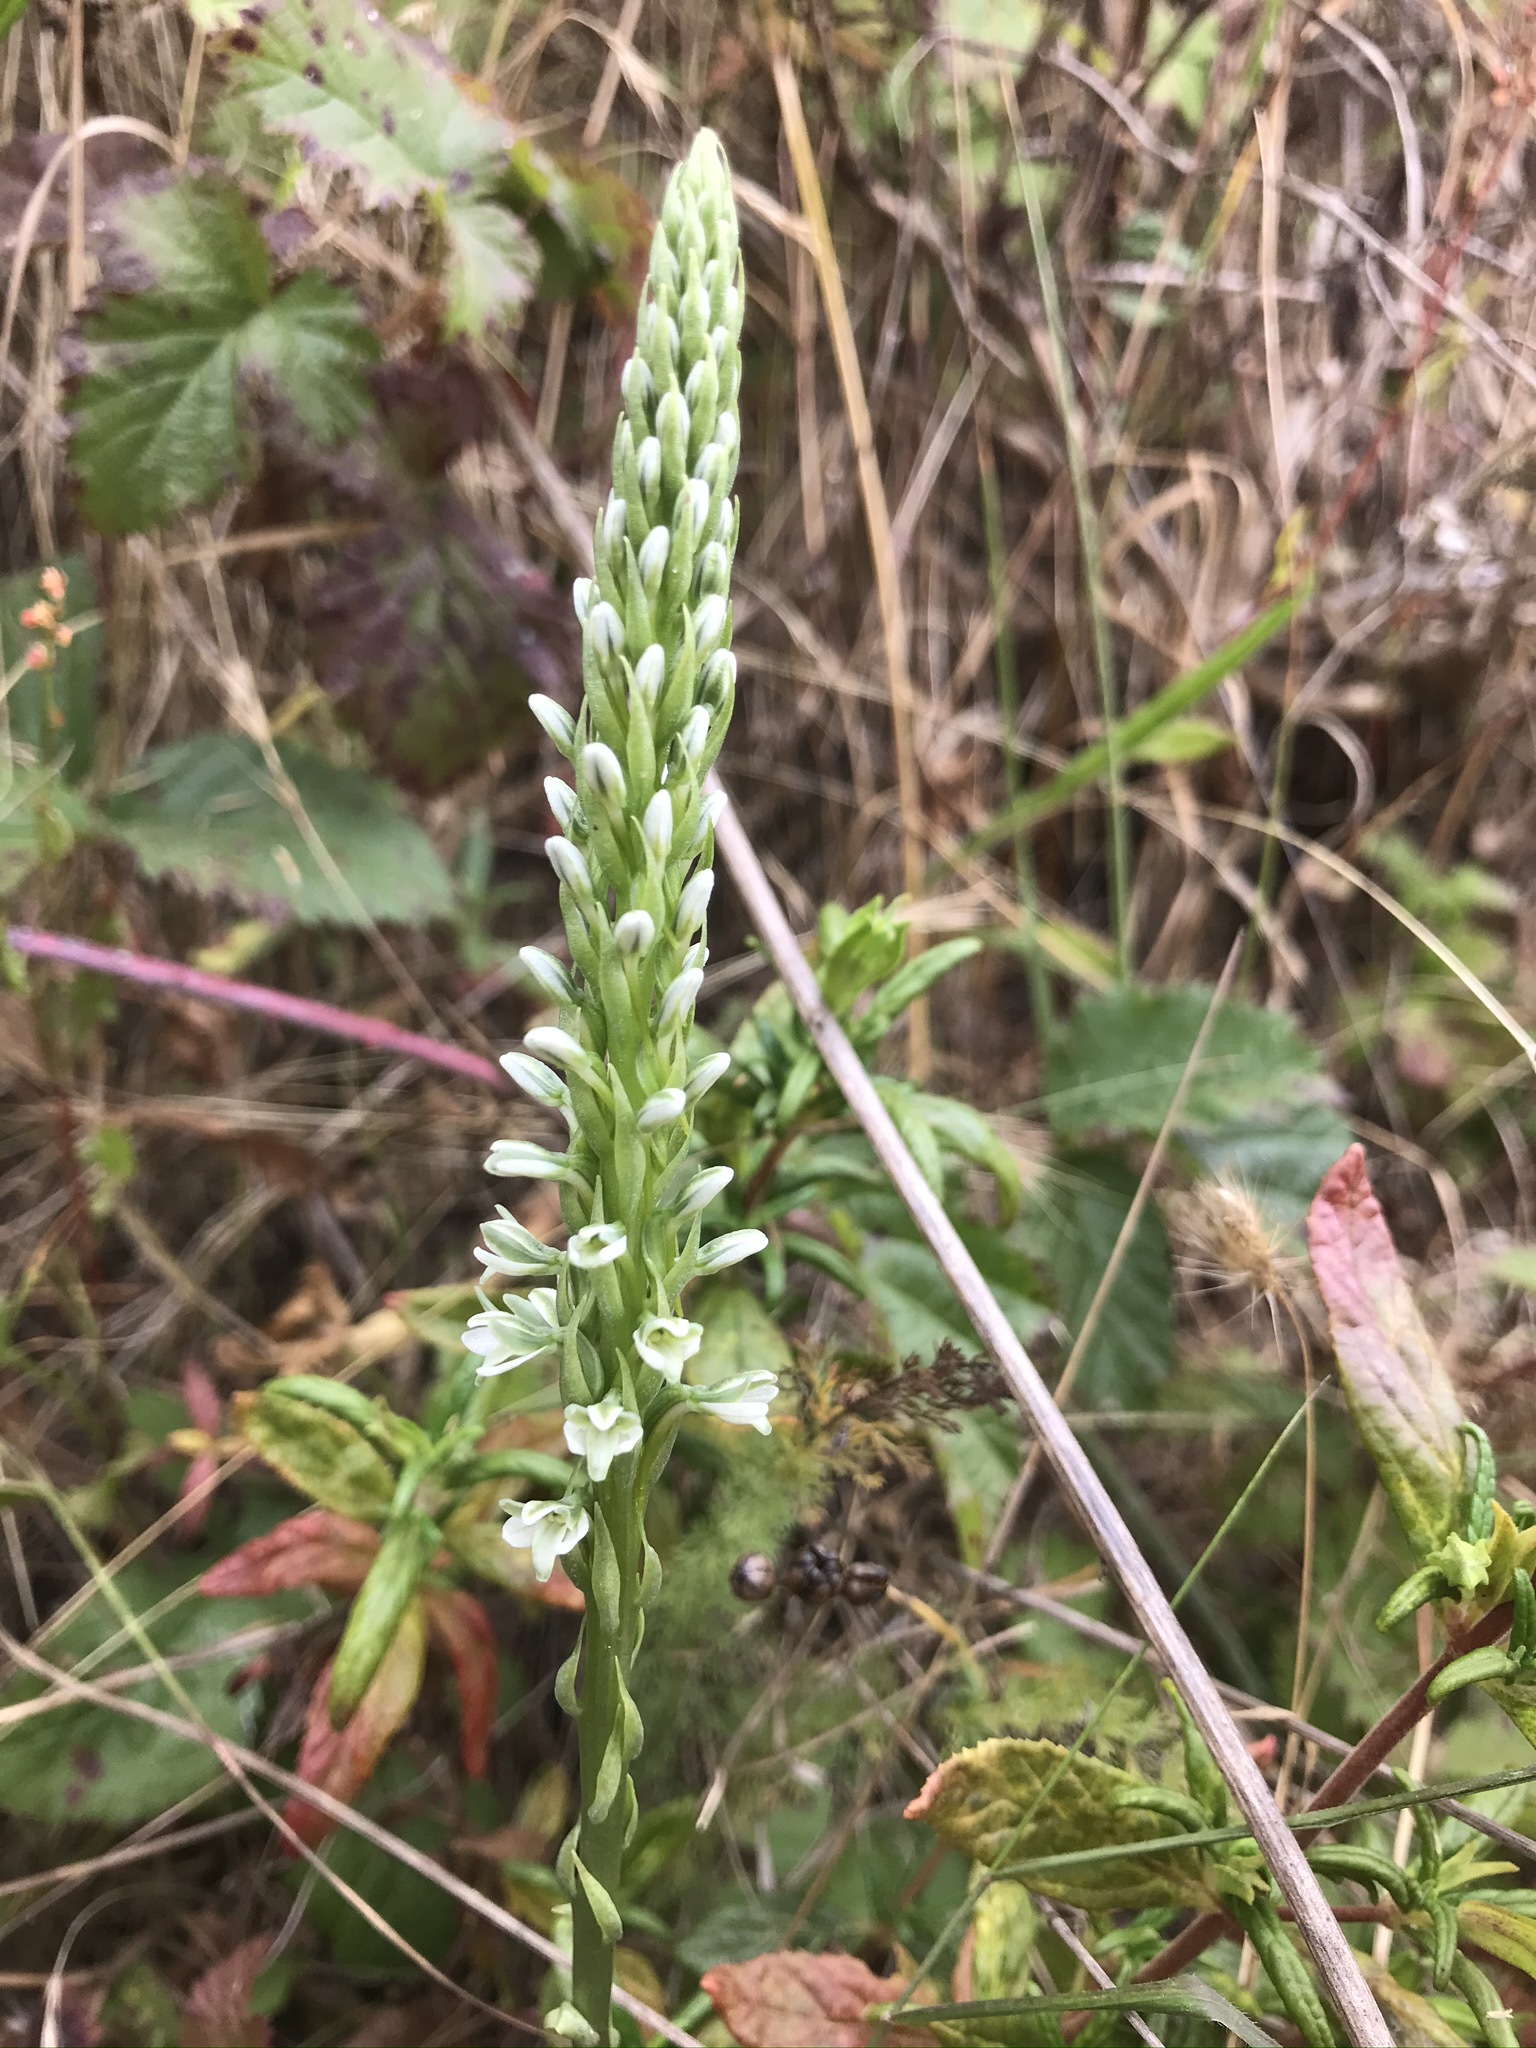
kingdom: Plantae
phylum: Tracheophyta
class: Liliopsida
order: Asparagales
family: Orchidaceae
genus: Platanthera
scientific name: Platanthera elegans
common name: Coast piperia
